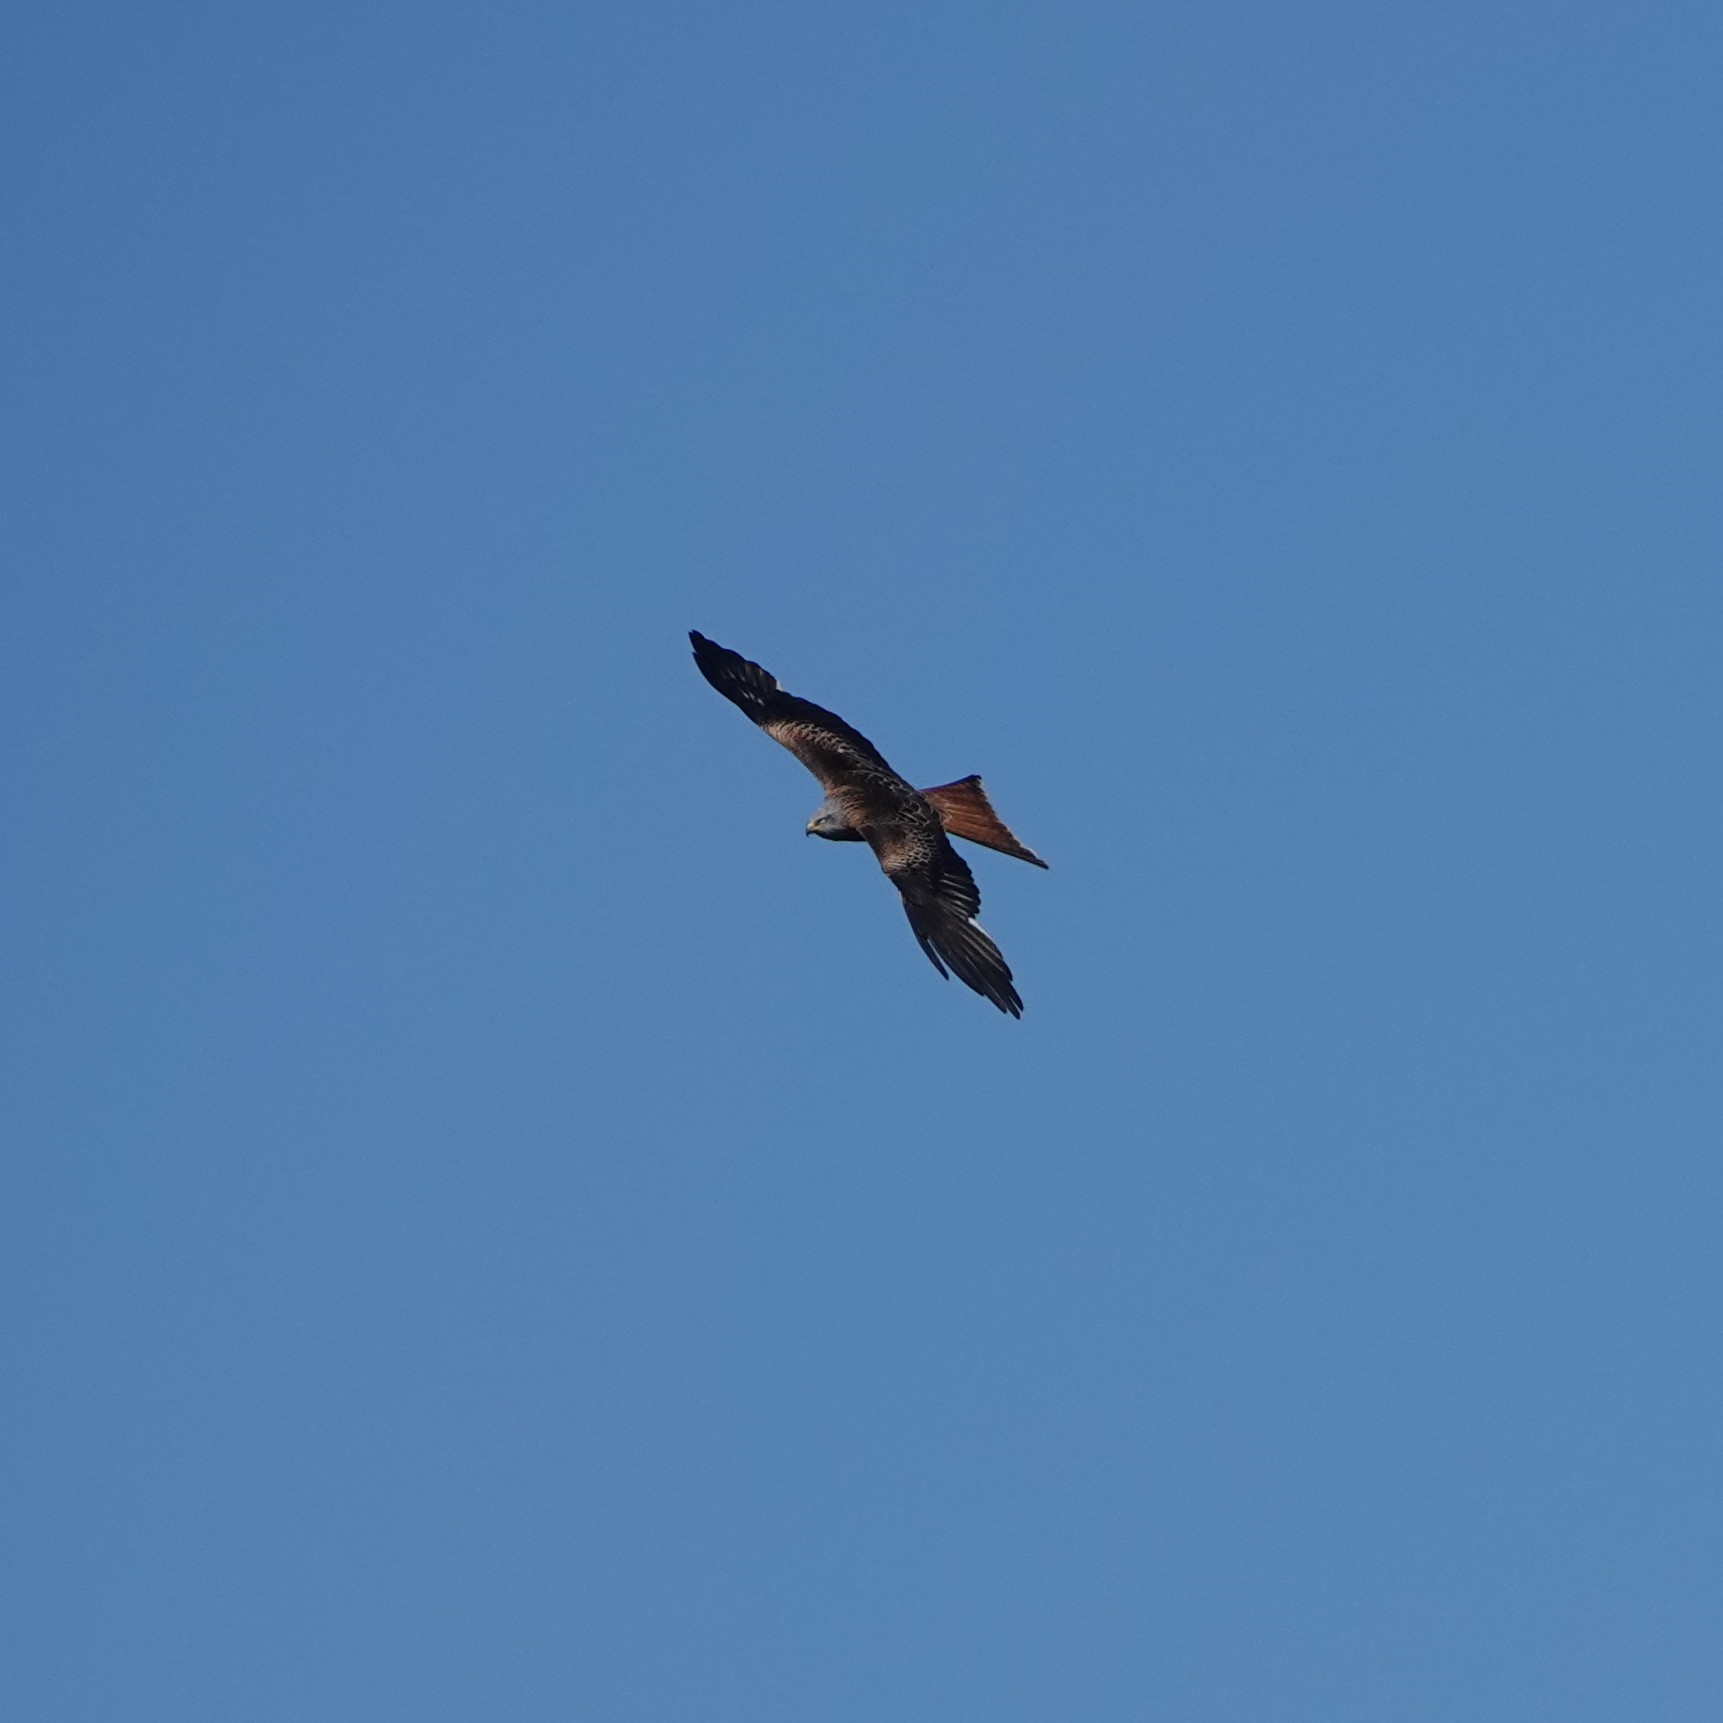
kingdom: Animalia
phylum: Chordata
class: Aves
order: Accipitriformes
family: Accipitridae
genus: Milvus
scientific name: Milvus milvus
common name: Red kite
